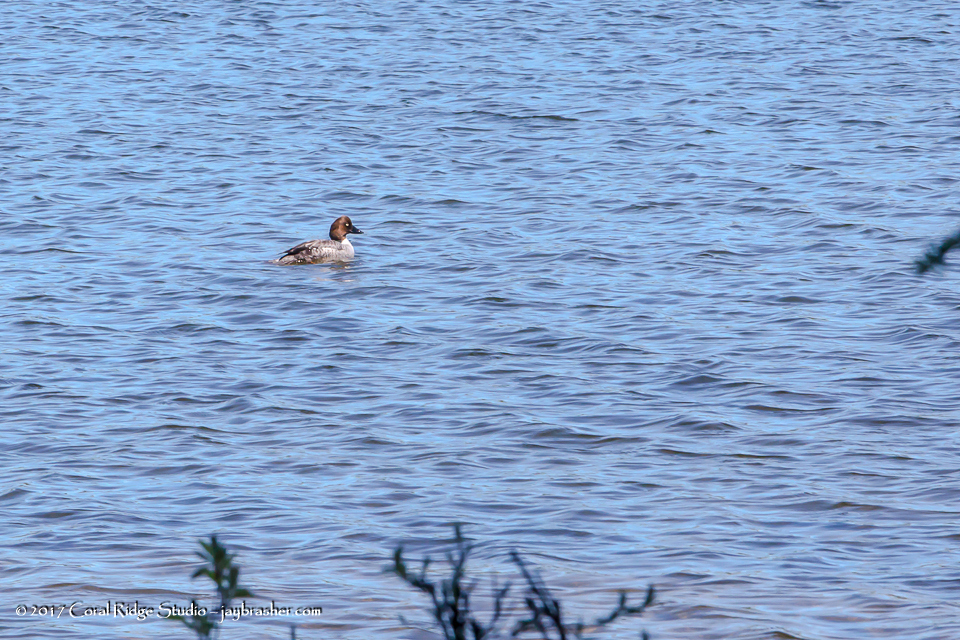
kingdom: Animalia
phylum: Chordata
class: Aves
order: Anseriformes
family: Anatidae
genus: Bucephala
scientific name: Bucephala clangula
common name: Common goldeneye
